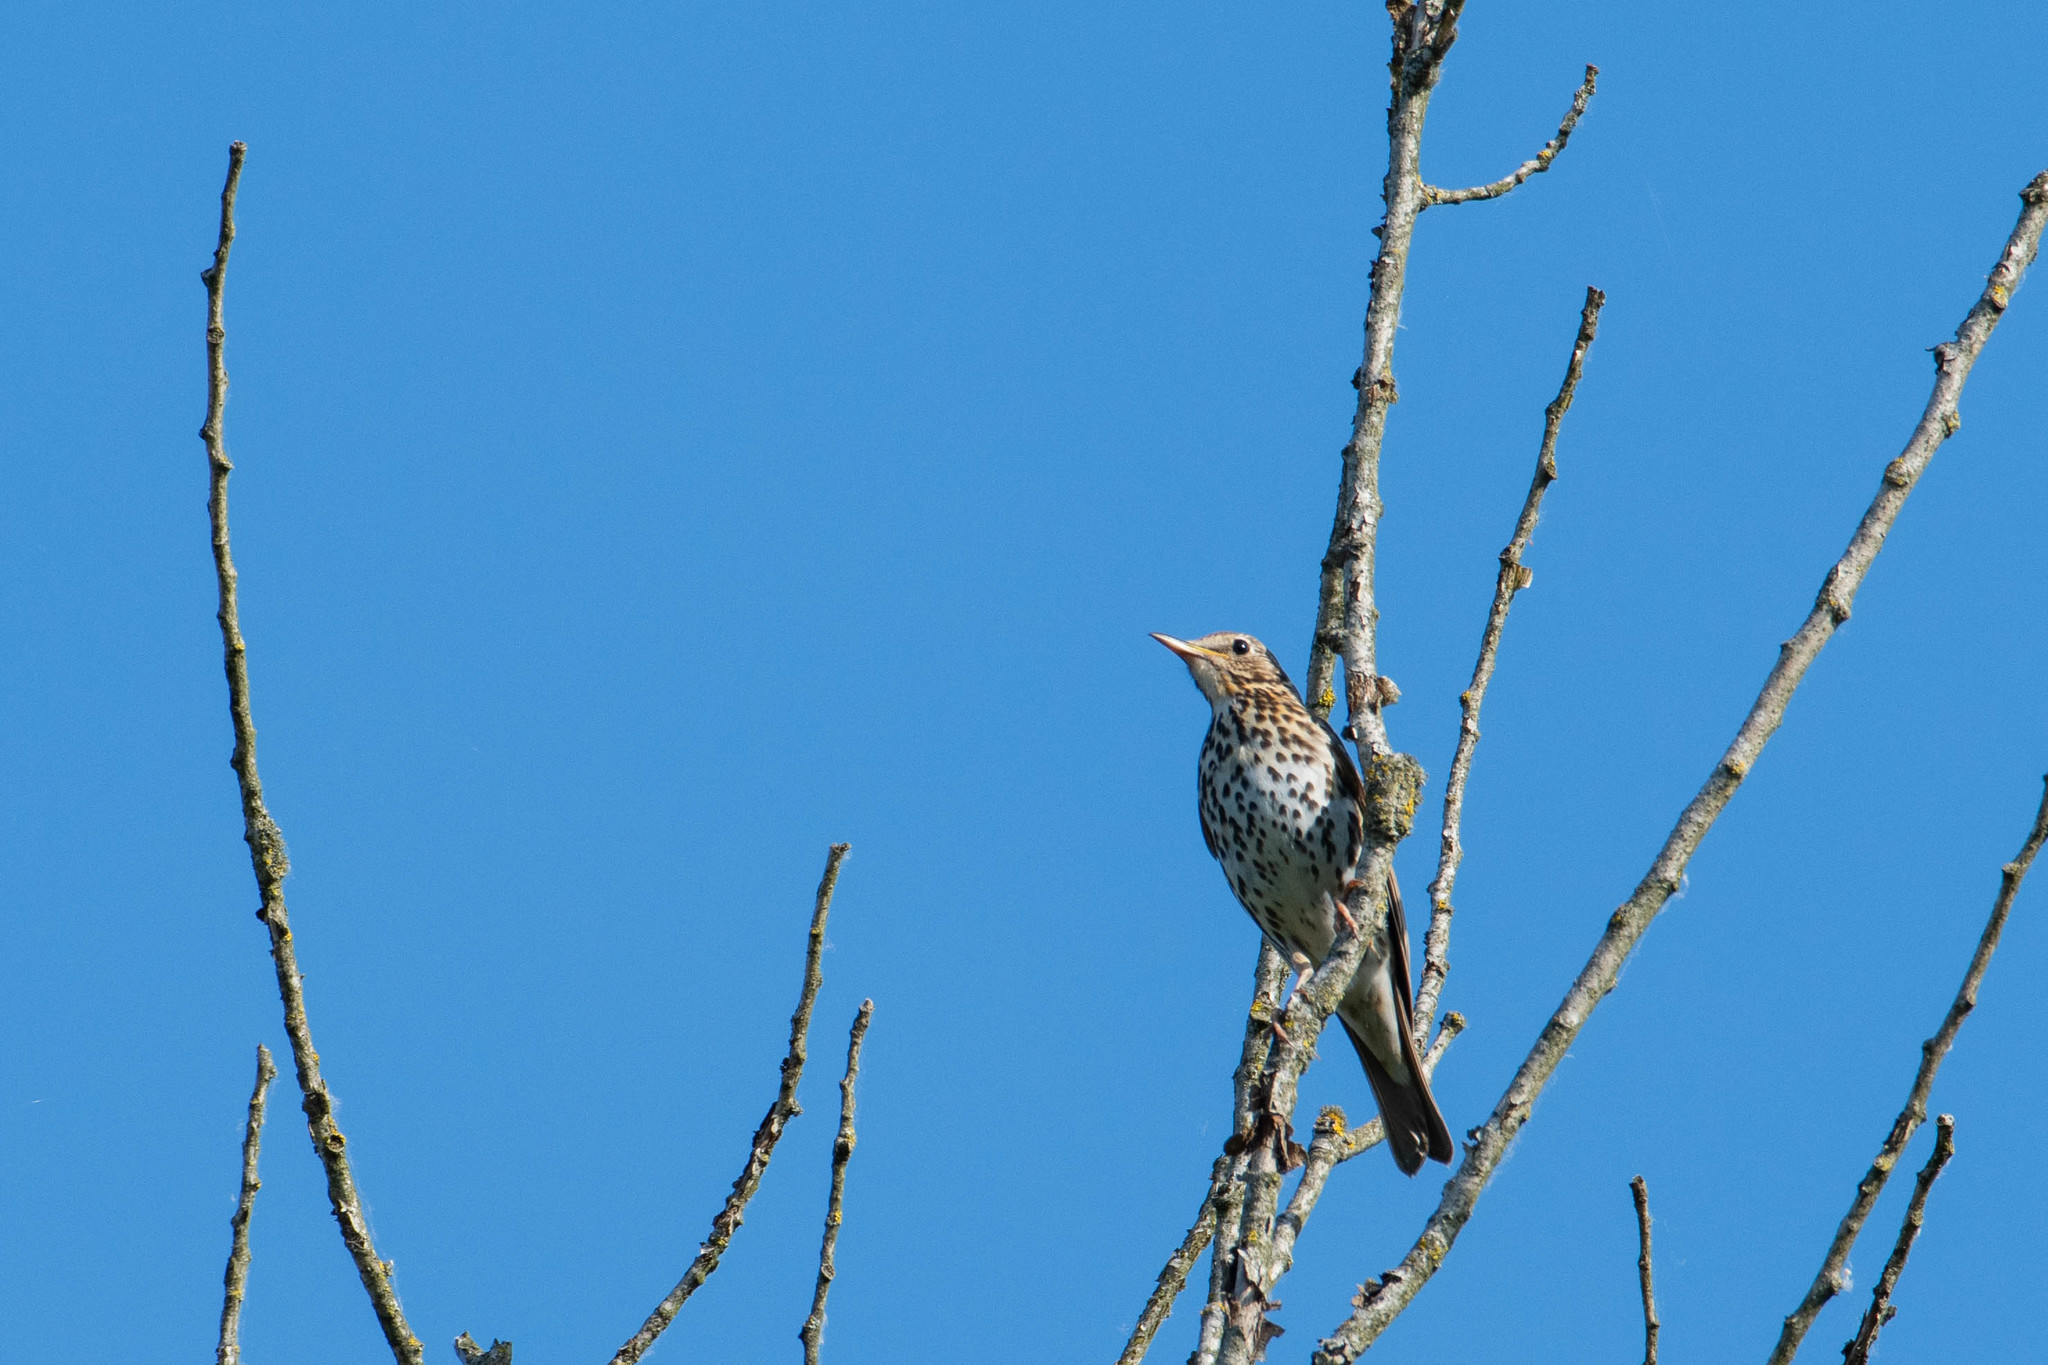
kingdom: Animalia
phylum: Chordata
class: Aves
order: Passeriformes
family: Turdidae
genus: Turdus
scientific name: Turdus philomelos
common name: Song thrush
